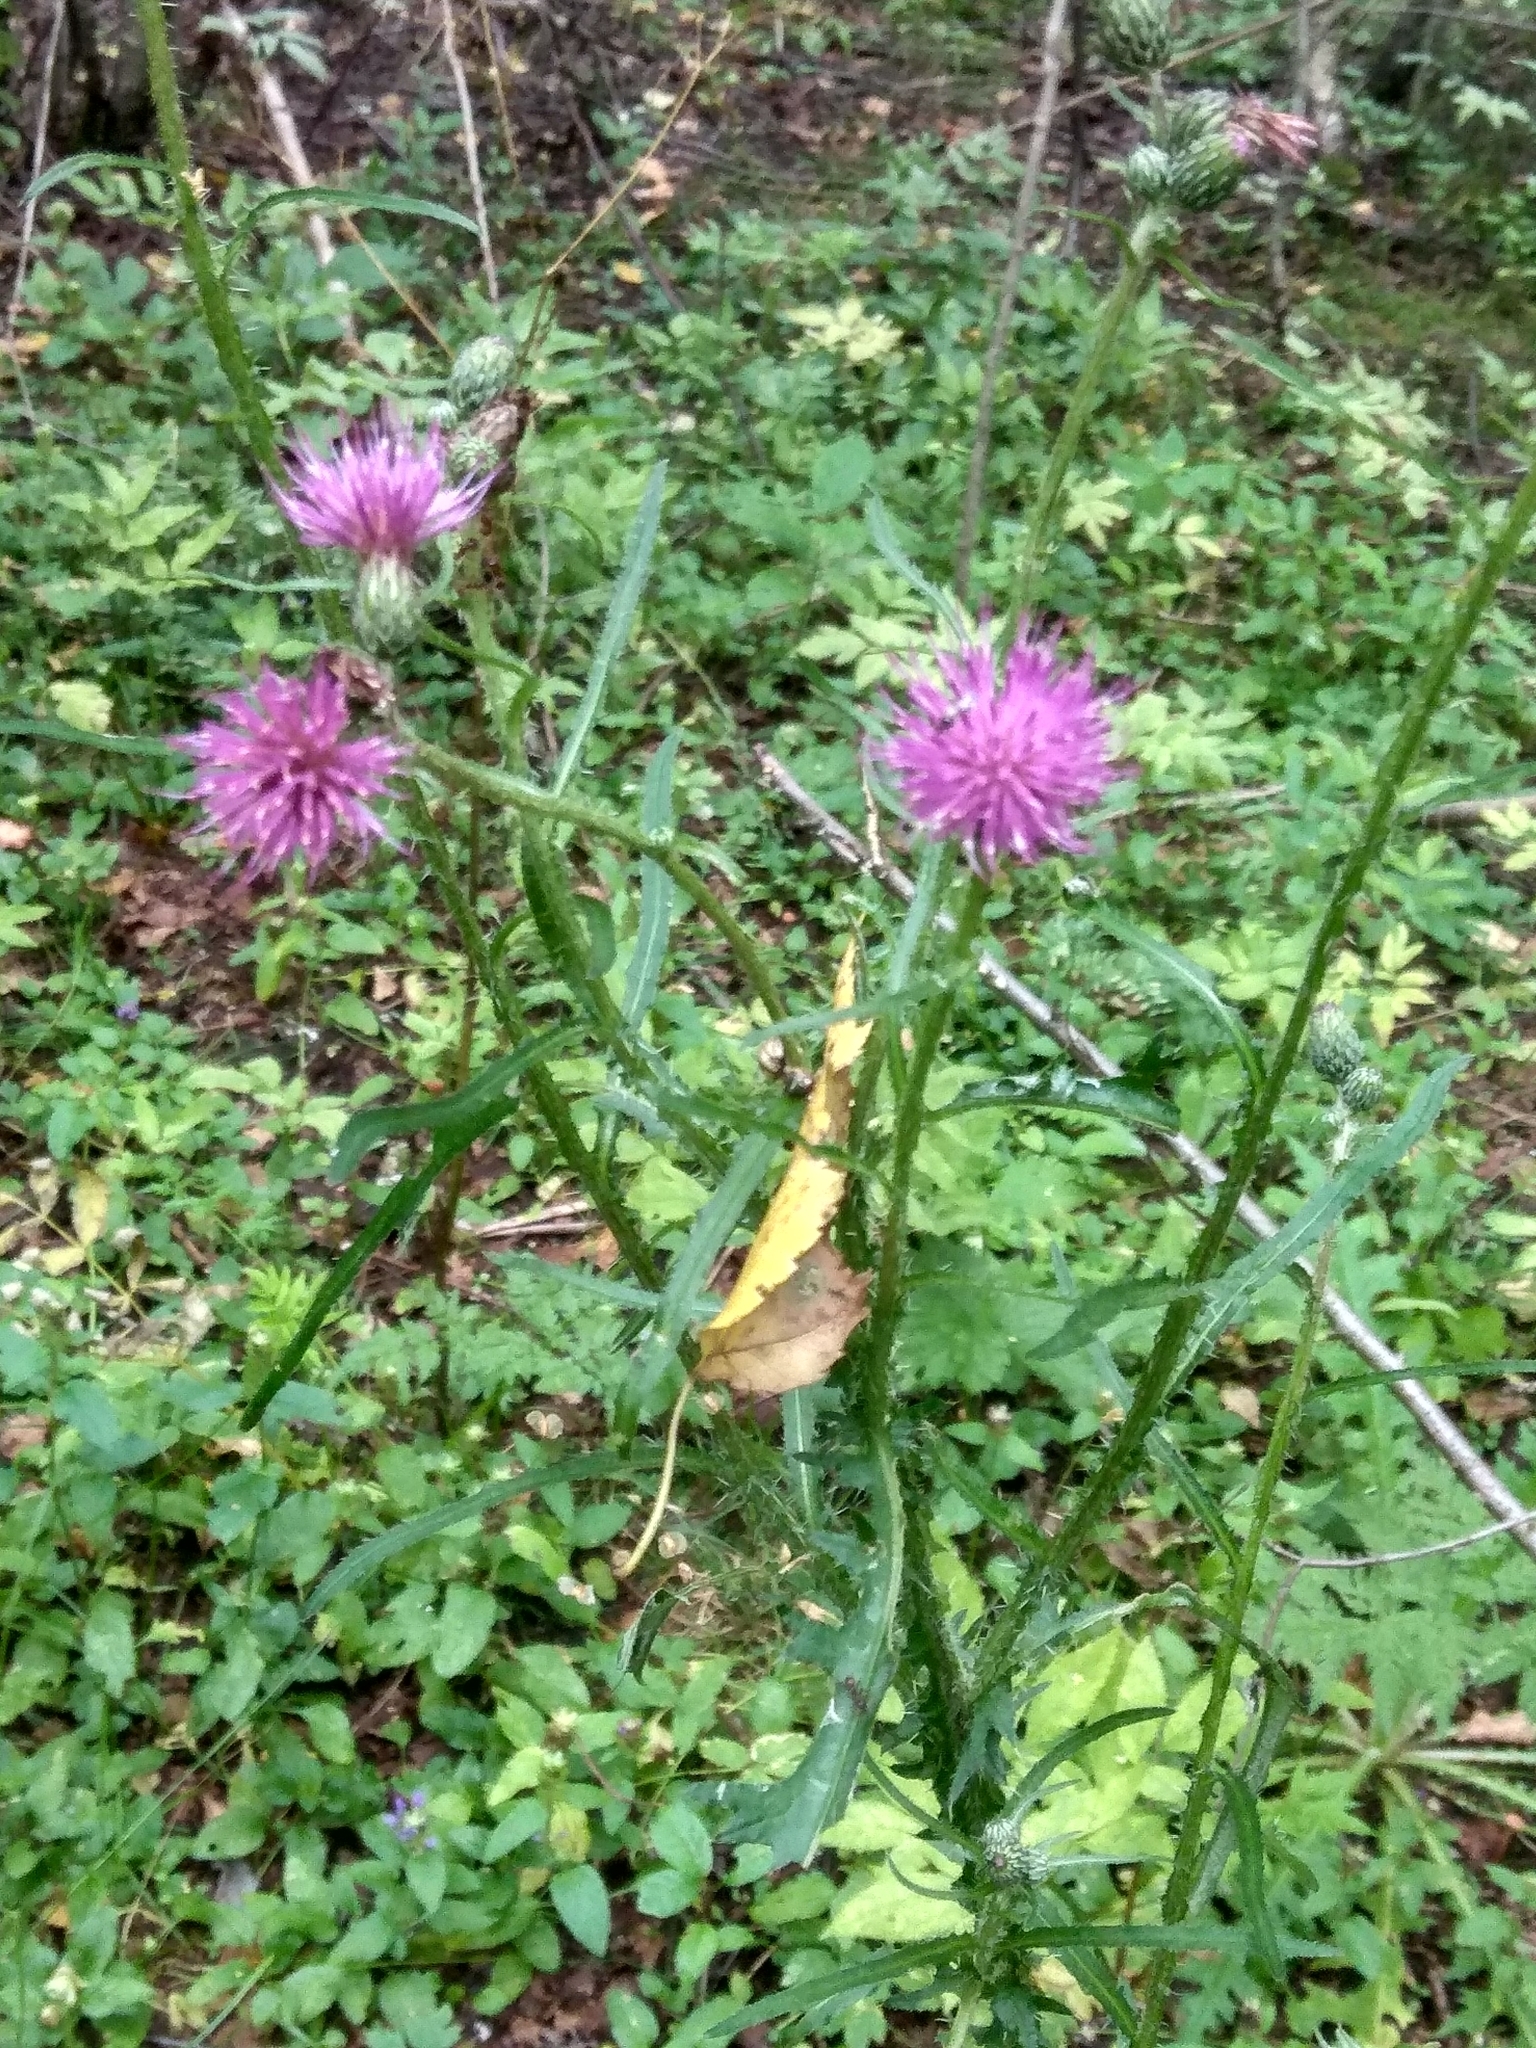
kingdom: Plantae
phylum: Tracheophyta
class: Magnoliopsida
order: Asterales
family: Asteraceae
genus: Carduus
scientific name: Carduus crispus
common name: Welted thistle
